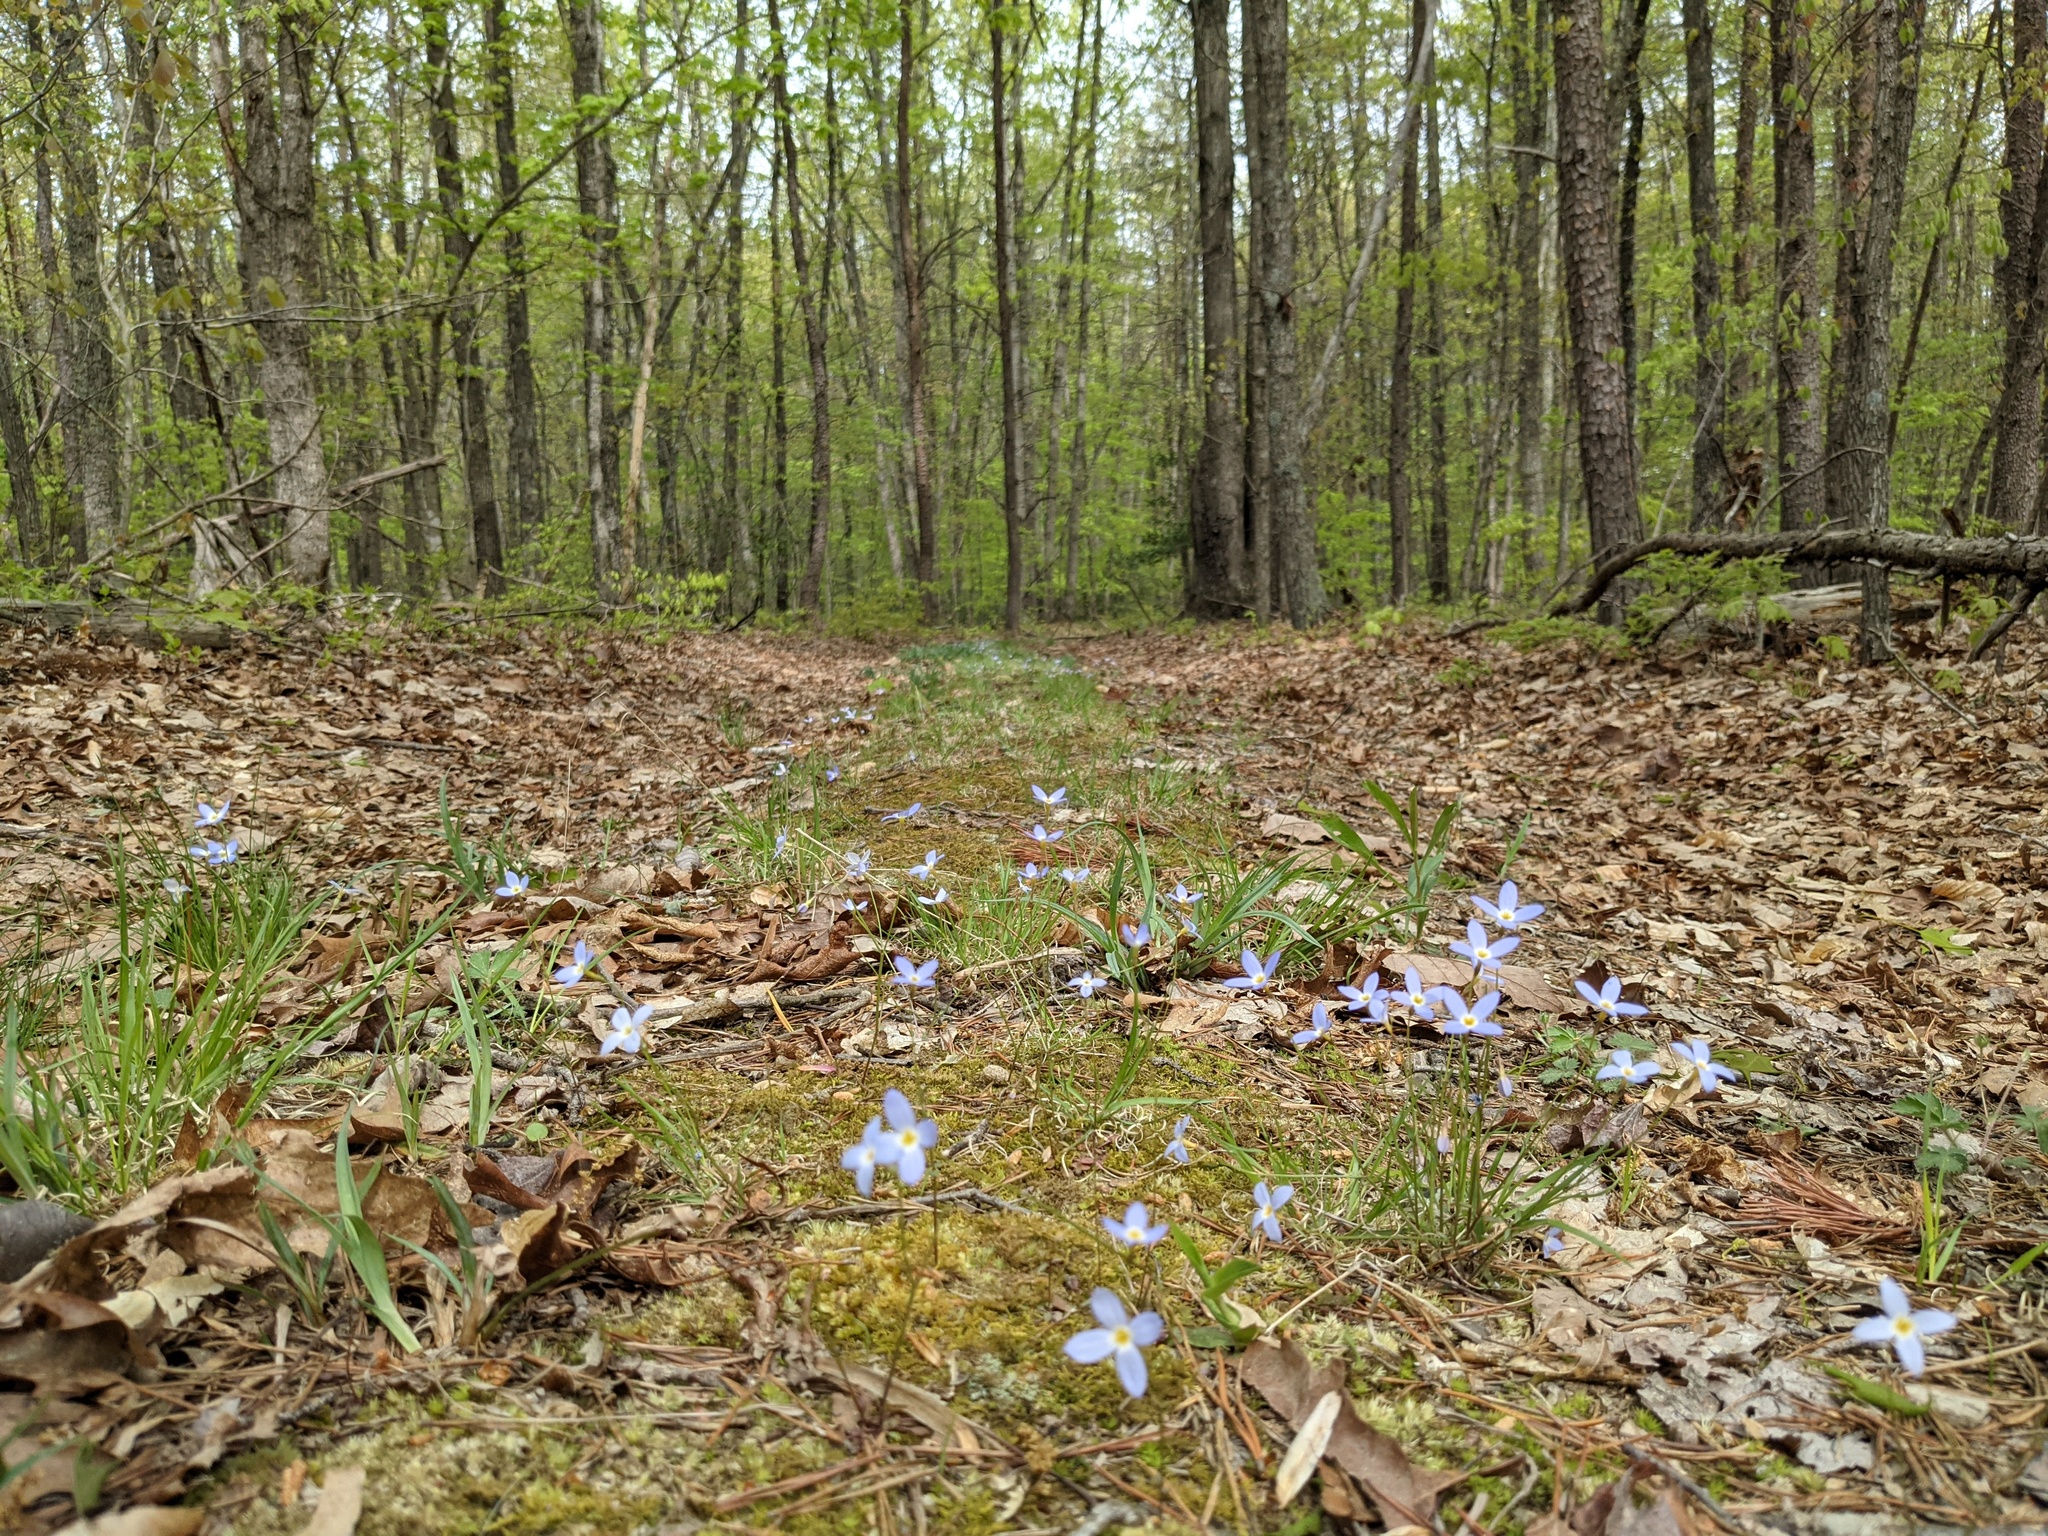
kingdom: Plantae
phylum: Tracheophyta
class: Magnoliopsida
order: Gentianales
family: Rubiaceae
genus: Houstonia
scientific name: Houstonia caerulea
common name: Bluets
